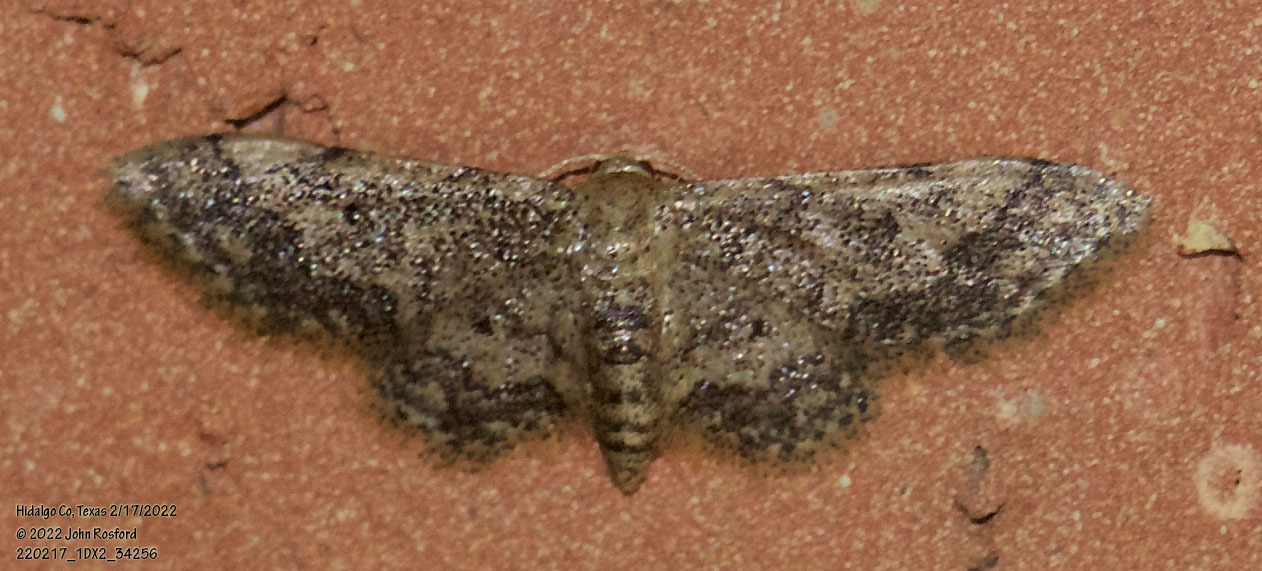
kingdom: Animalia
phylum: Arthropoda
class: Insecta
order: Lepidoptera
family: Geometridae
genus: Idaea
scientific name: Idaea celtima
